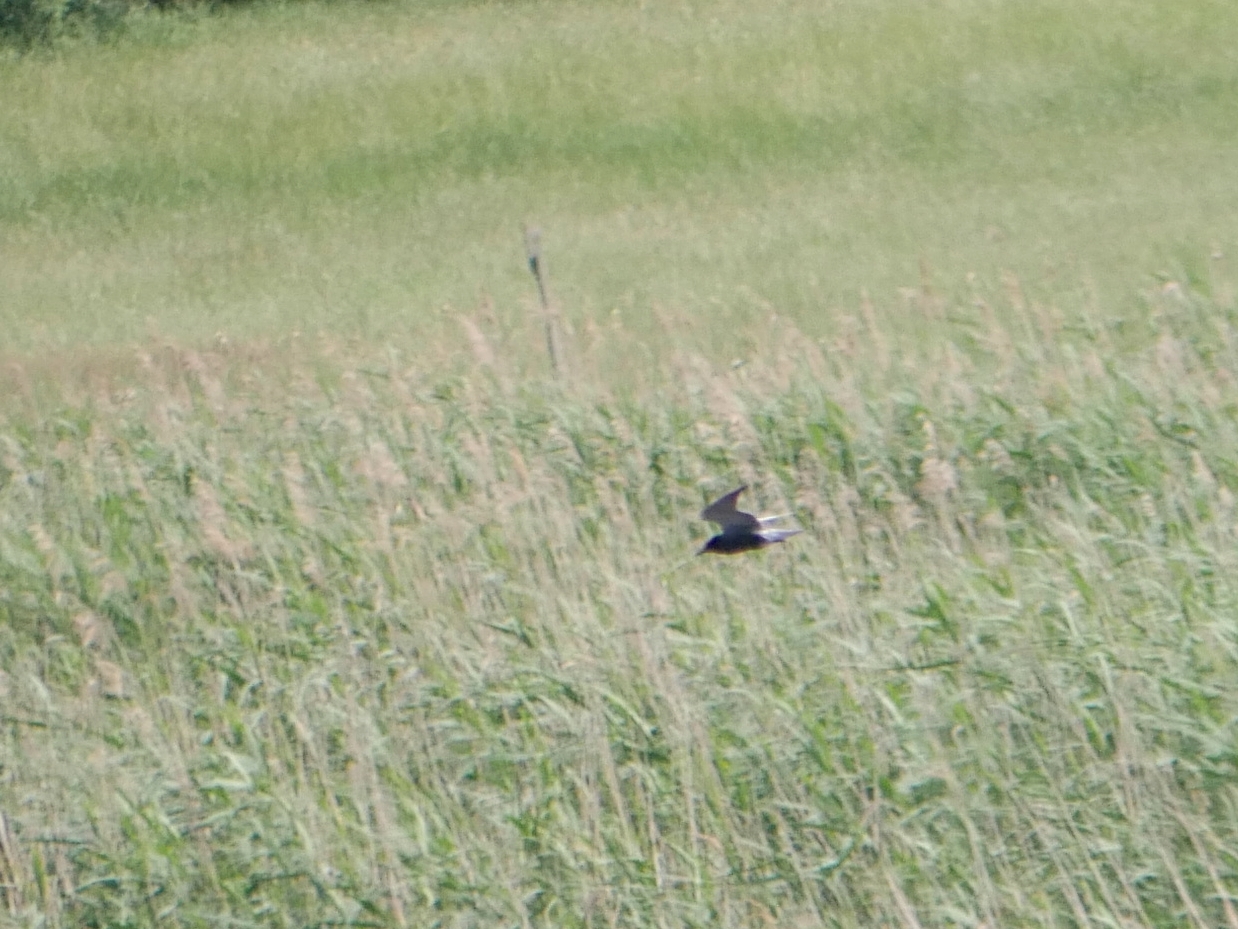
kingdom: Animalia
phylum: Chordata
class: Aves
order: Charadriiformes
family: Laridae
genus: Chlidonias
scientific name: Chlidonias niger
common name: Black tern
